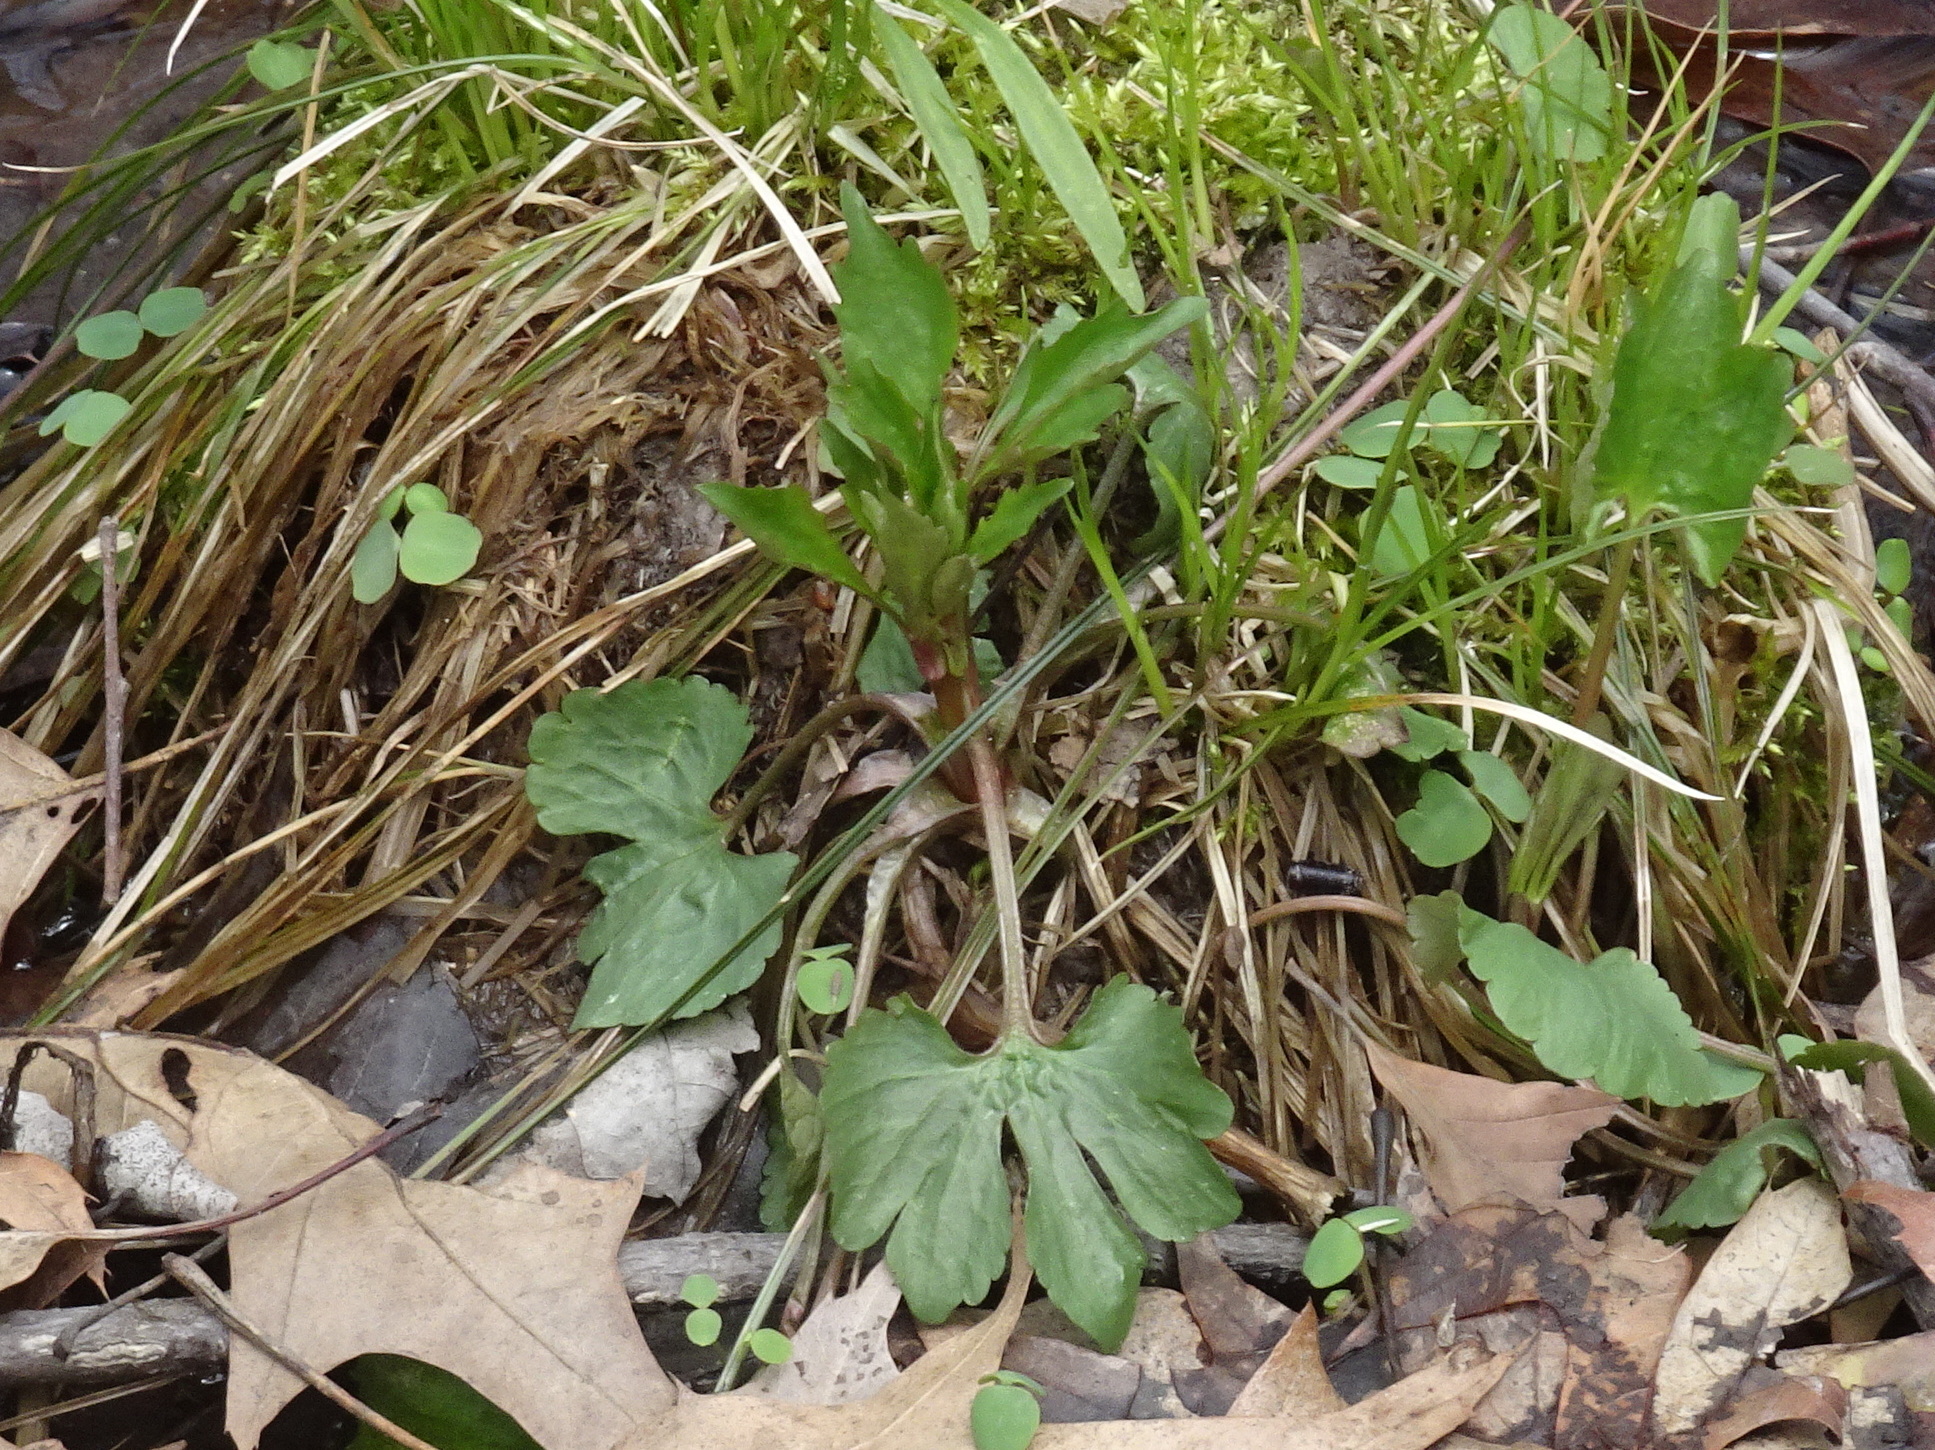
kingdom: Plantae
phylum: Tracheophyta
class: Magnoliopsida
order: Ranunculales
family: Ranunculaceae
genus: Ranunculus
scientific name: Ranunculus abortivus
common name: Early wood buttercup
